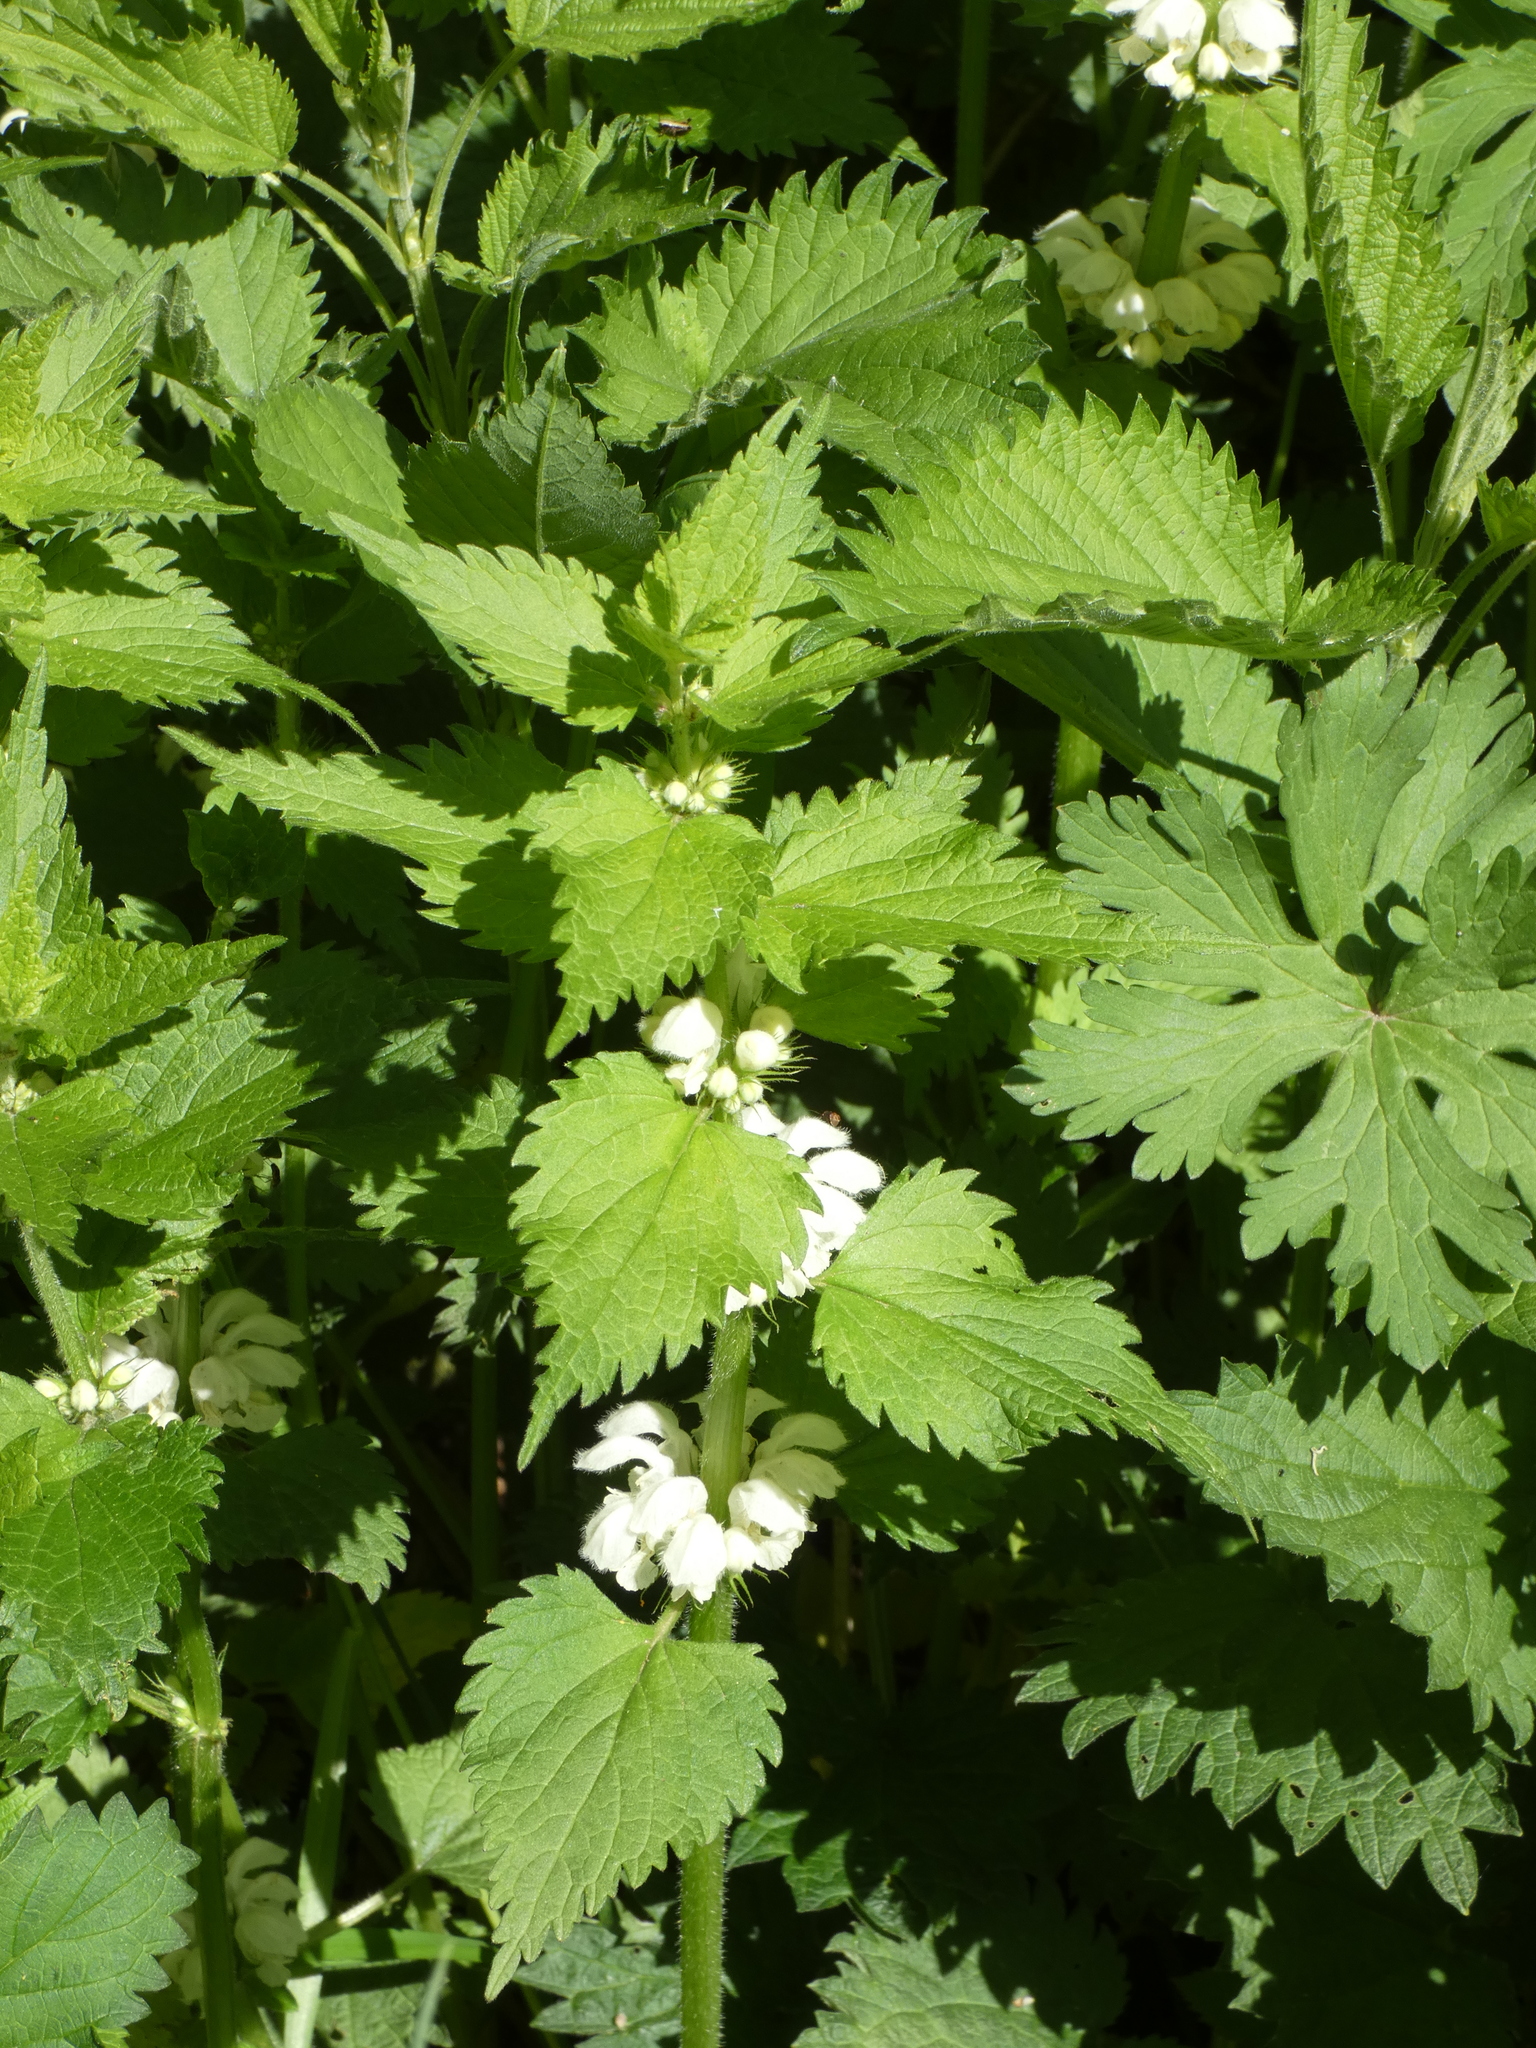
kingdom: Plantae
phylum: Tracheophyta
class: Magnoliopsida
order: Lamiales
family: Lamiaceae
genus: Lamium
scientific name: Lamium album
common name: White dead-nettle
